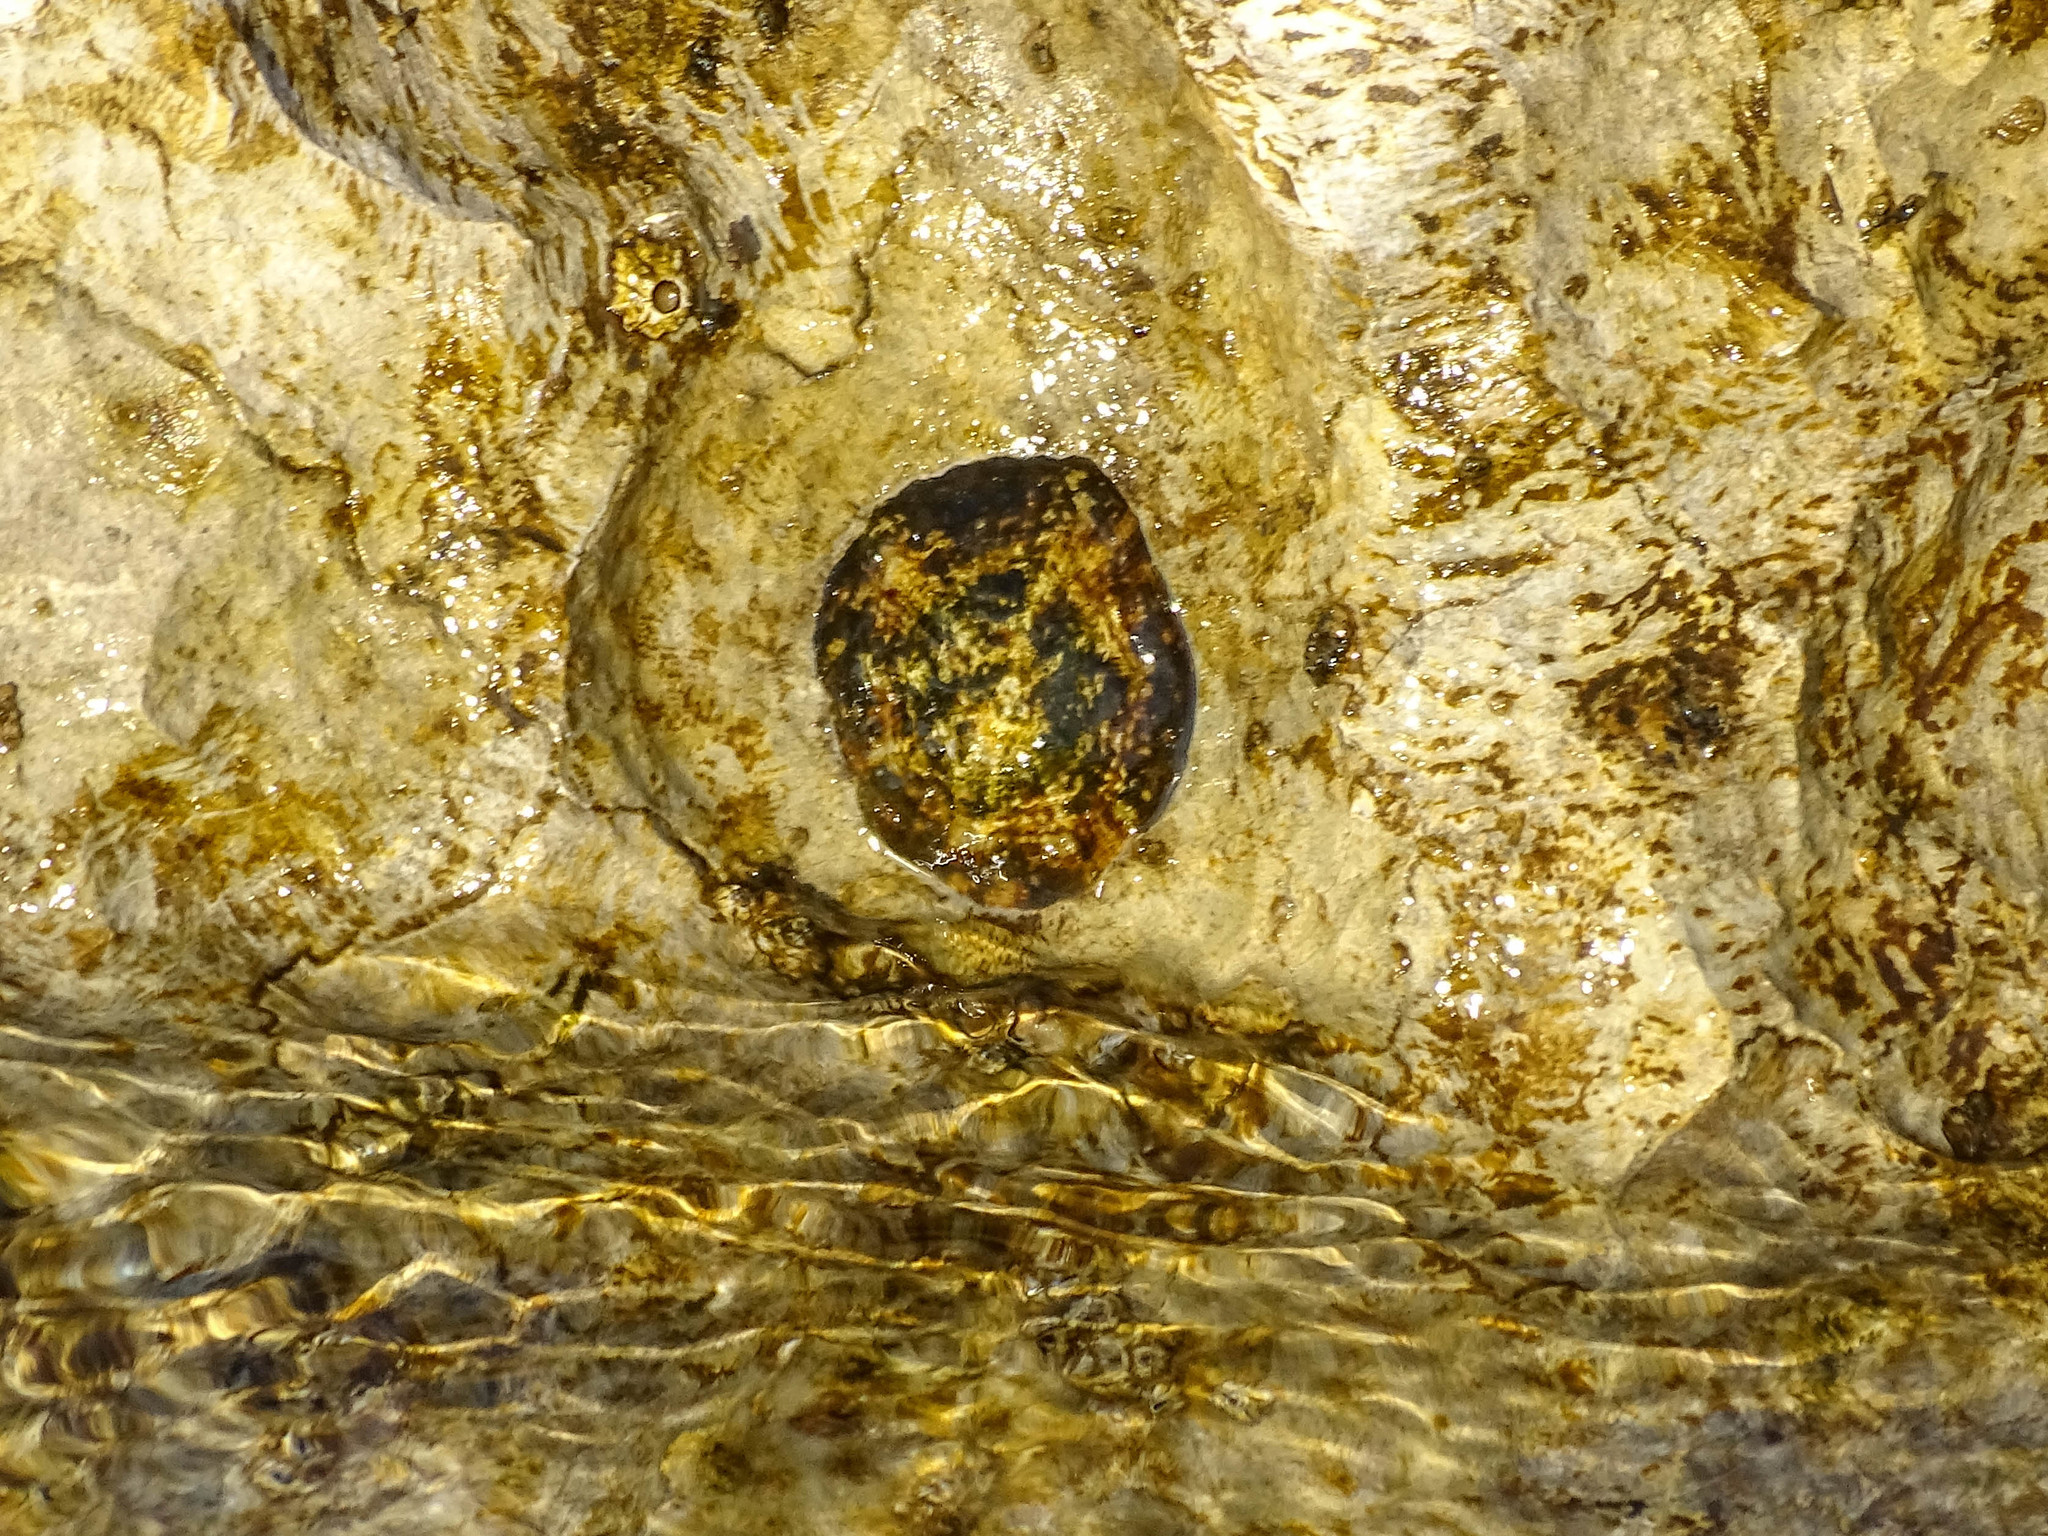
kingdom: Animalia
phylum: Mollusca
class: Gastropoda
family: Patellidae
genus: Patella
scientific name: Patella
